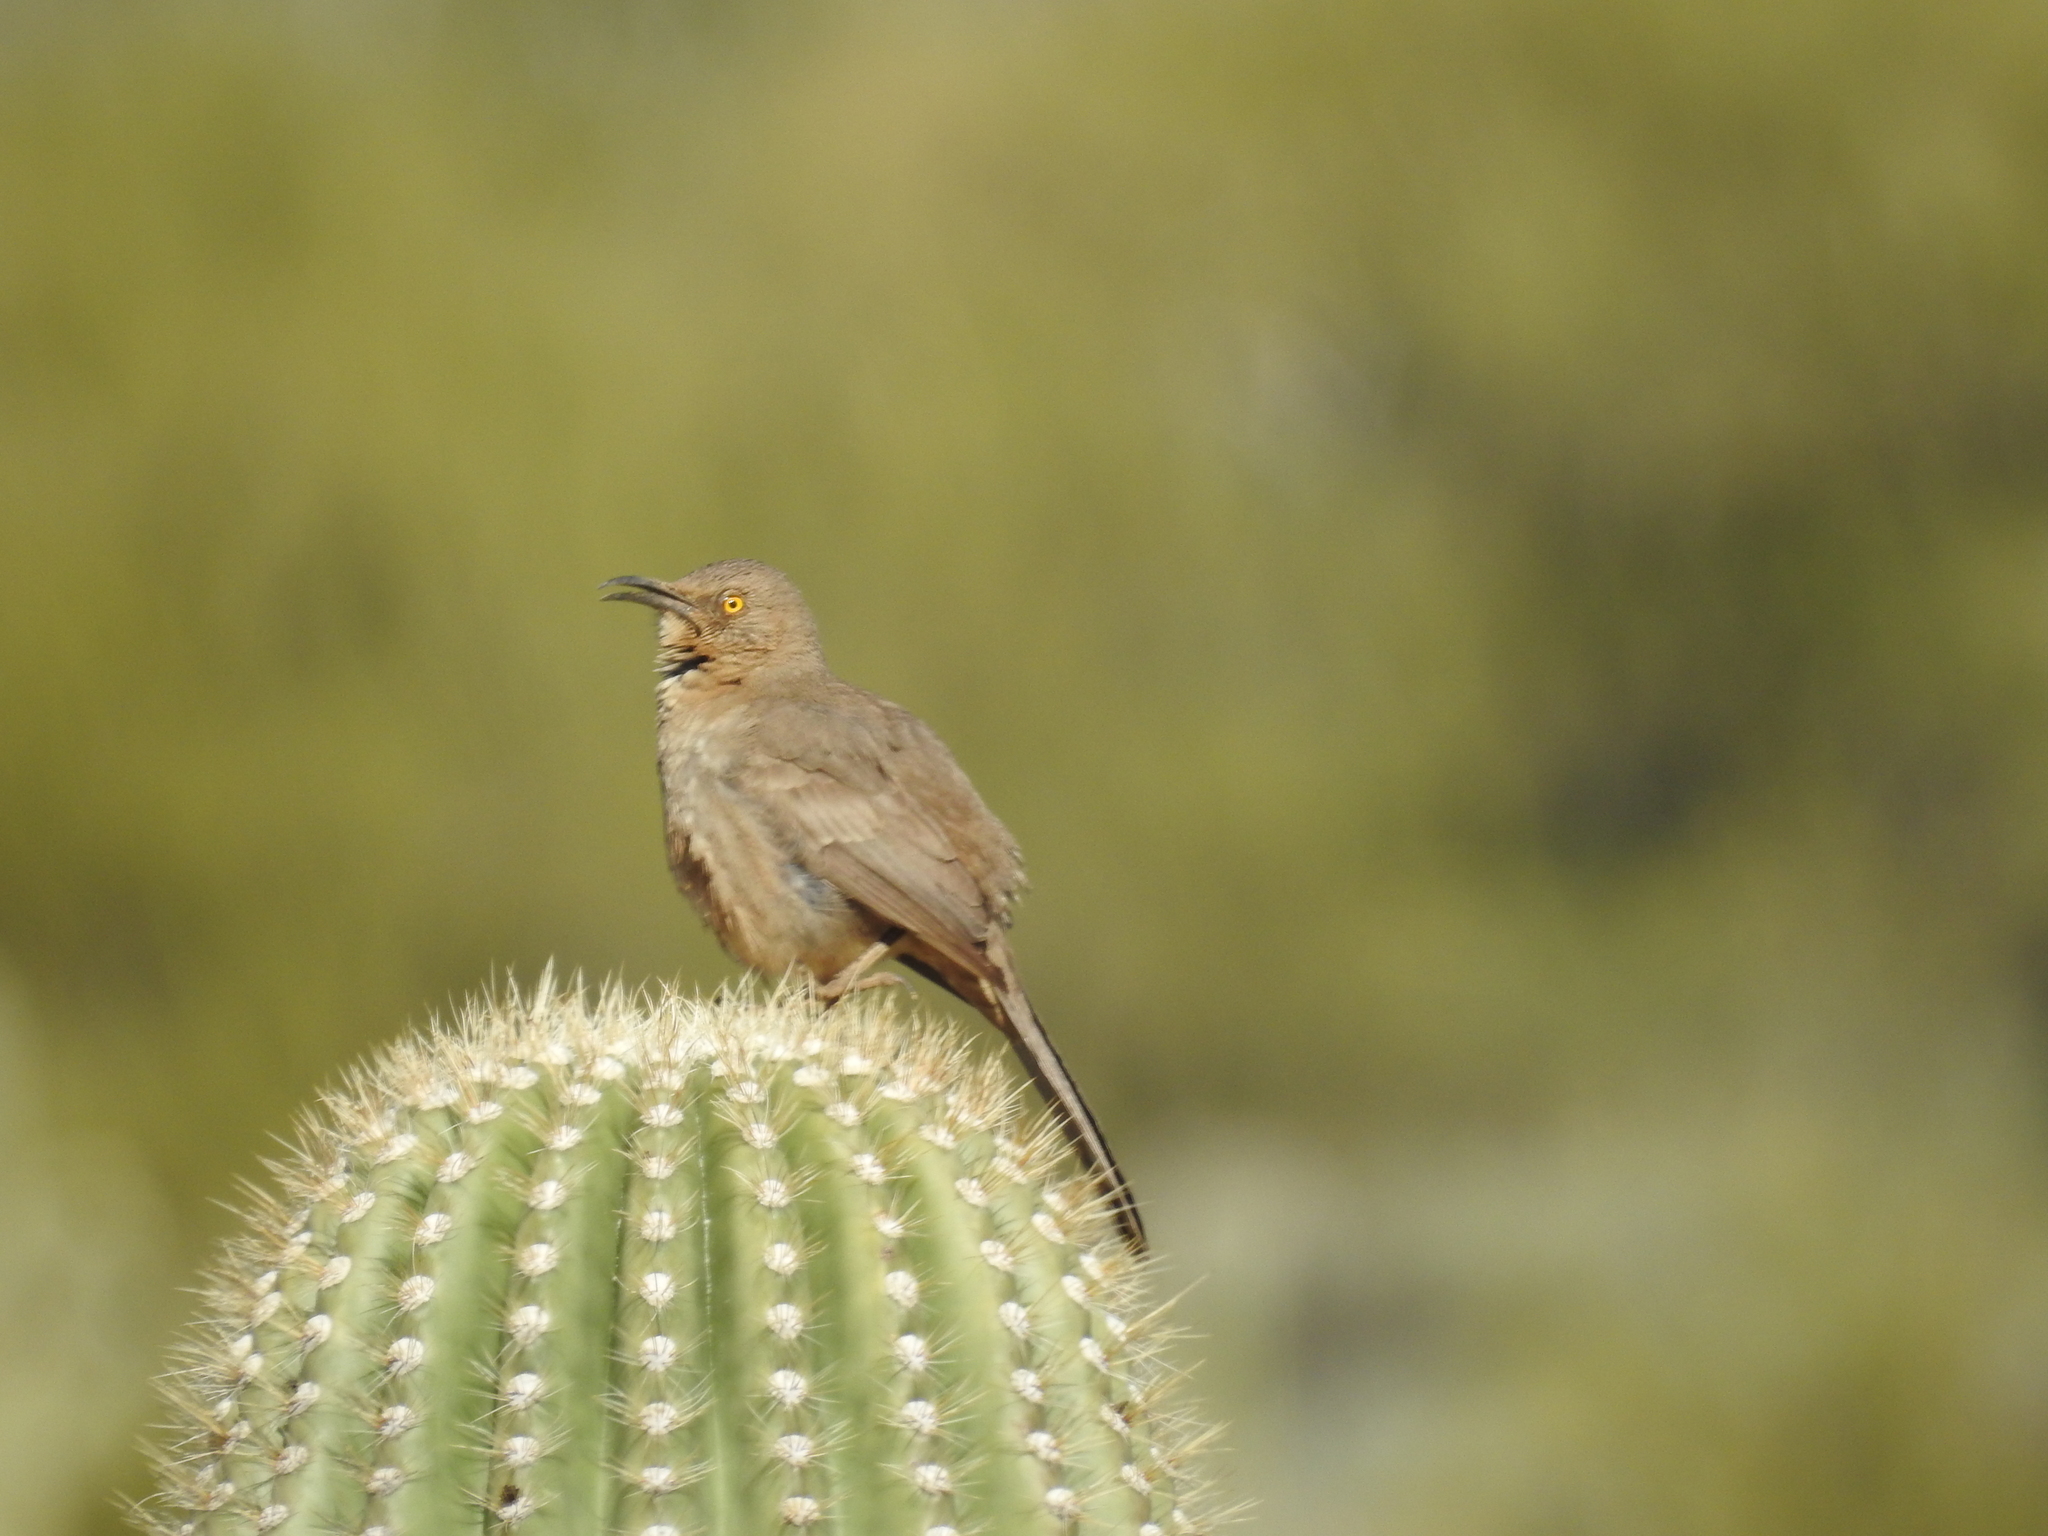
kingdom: Animalia
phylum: Chordata
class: Aves
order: Passeriformes
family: Mimidae
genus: Toxostoma
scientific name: Toxostoma curvirostre
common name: Curve-billed thrasher
